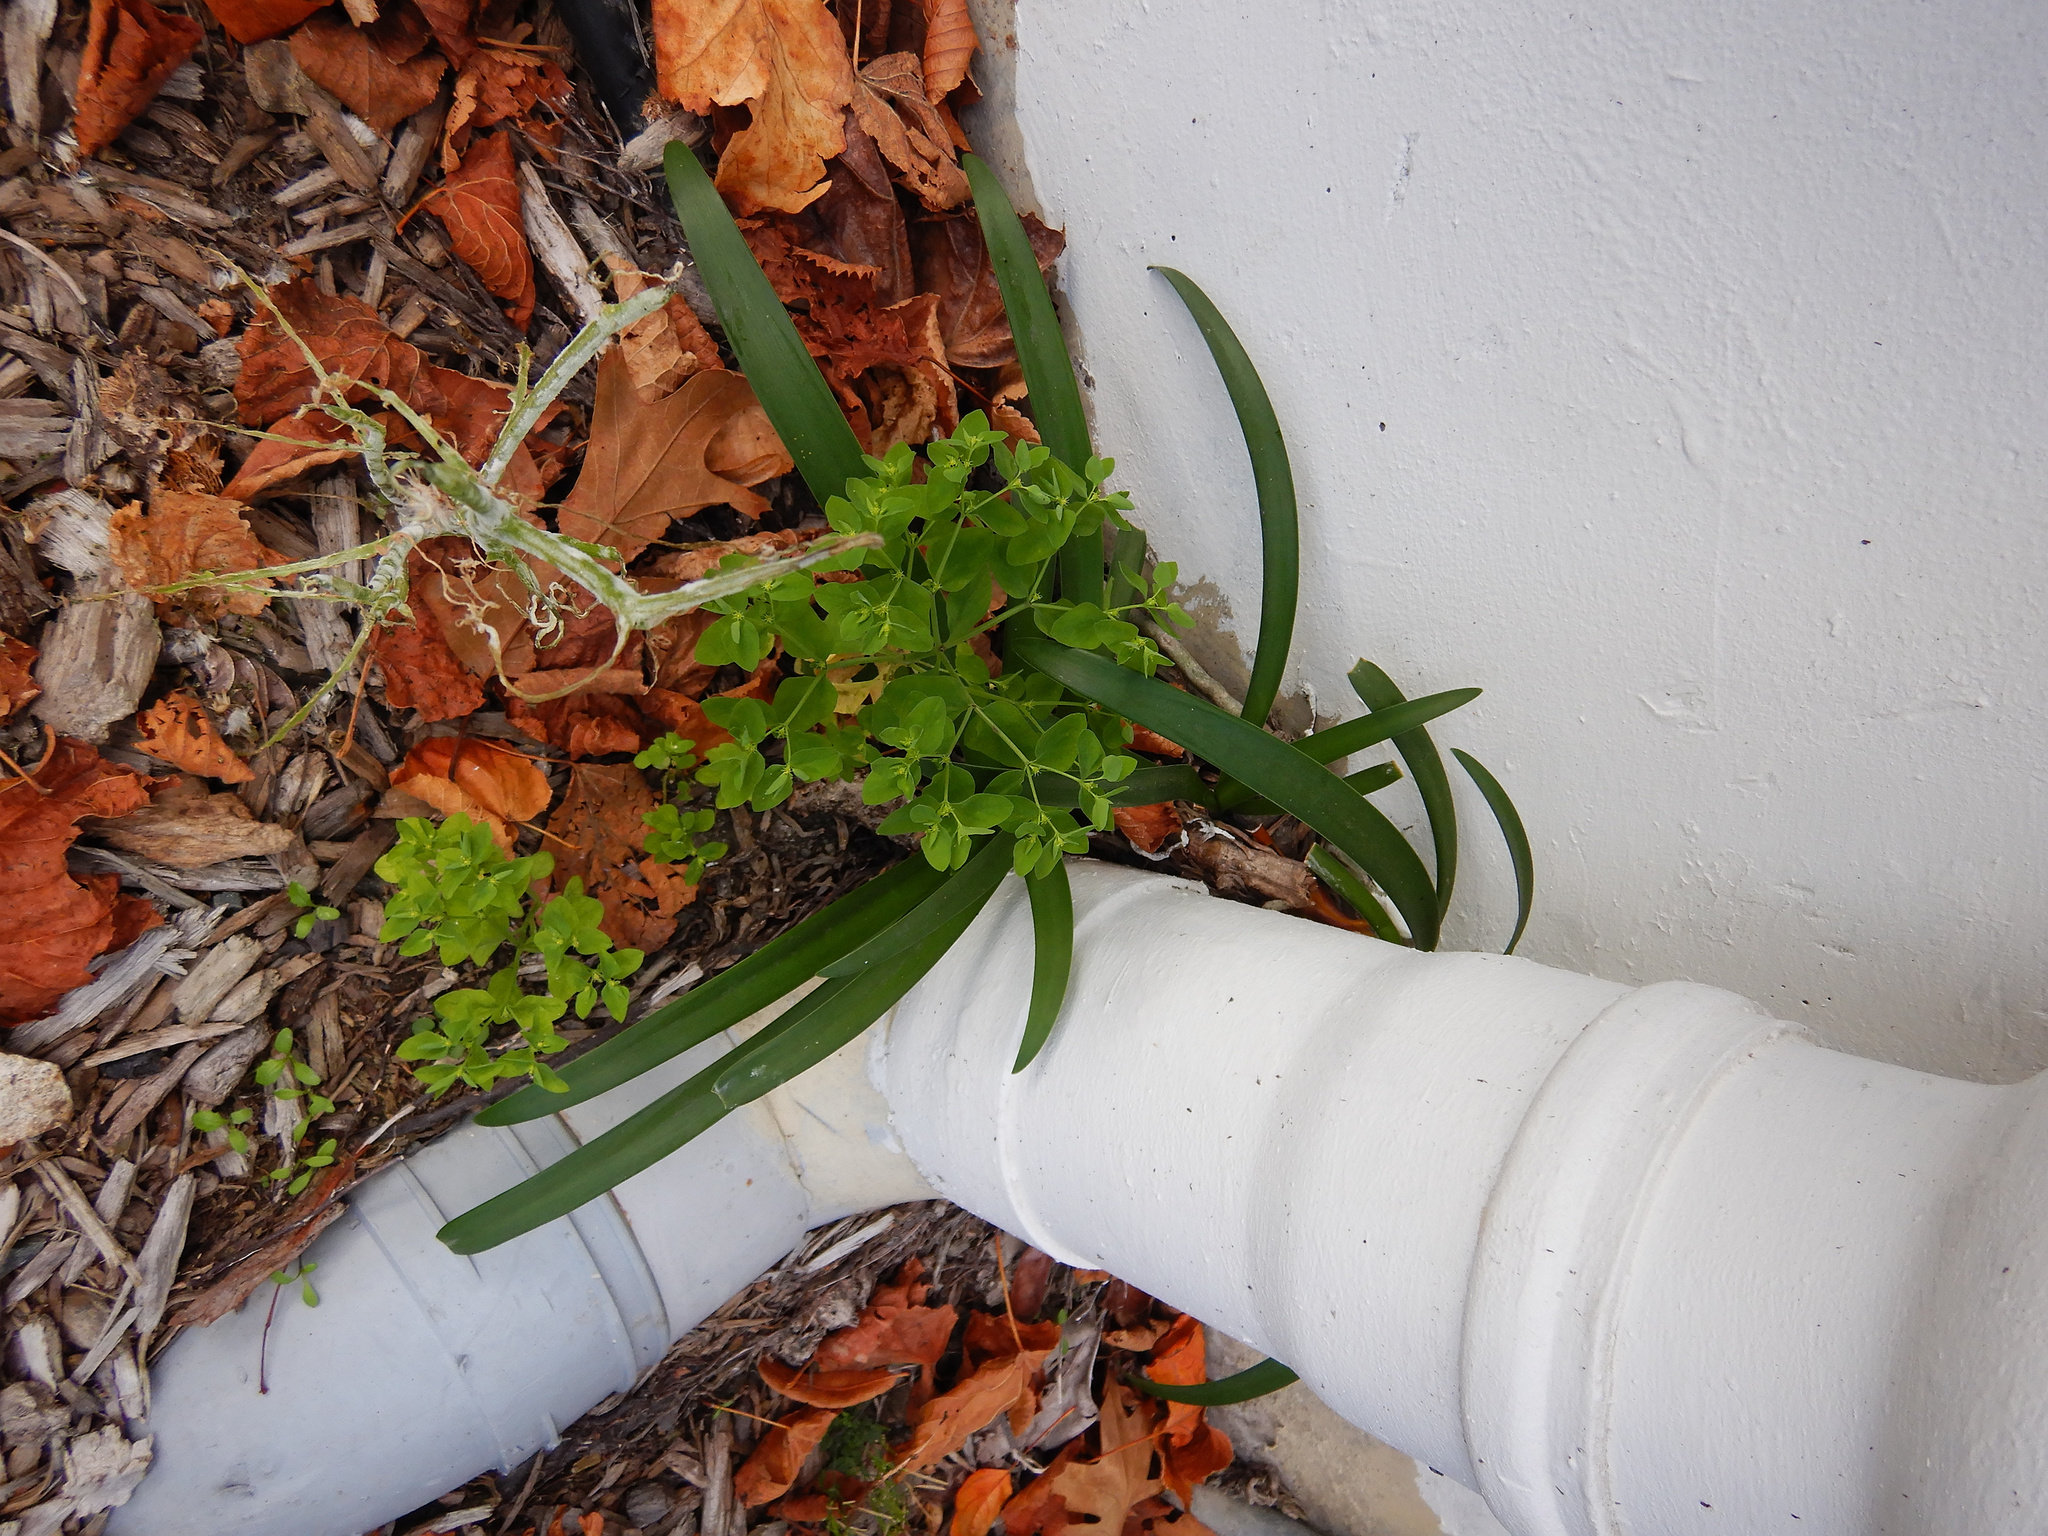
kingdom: Plantae
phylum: Tracheophyta
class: Magnoliopsida
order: Malpighiales
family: Euphorbiaceae
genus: Euphorbia
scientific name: Euphorbia peplus
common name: Petty spurge
